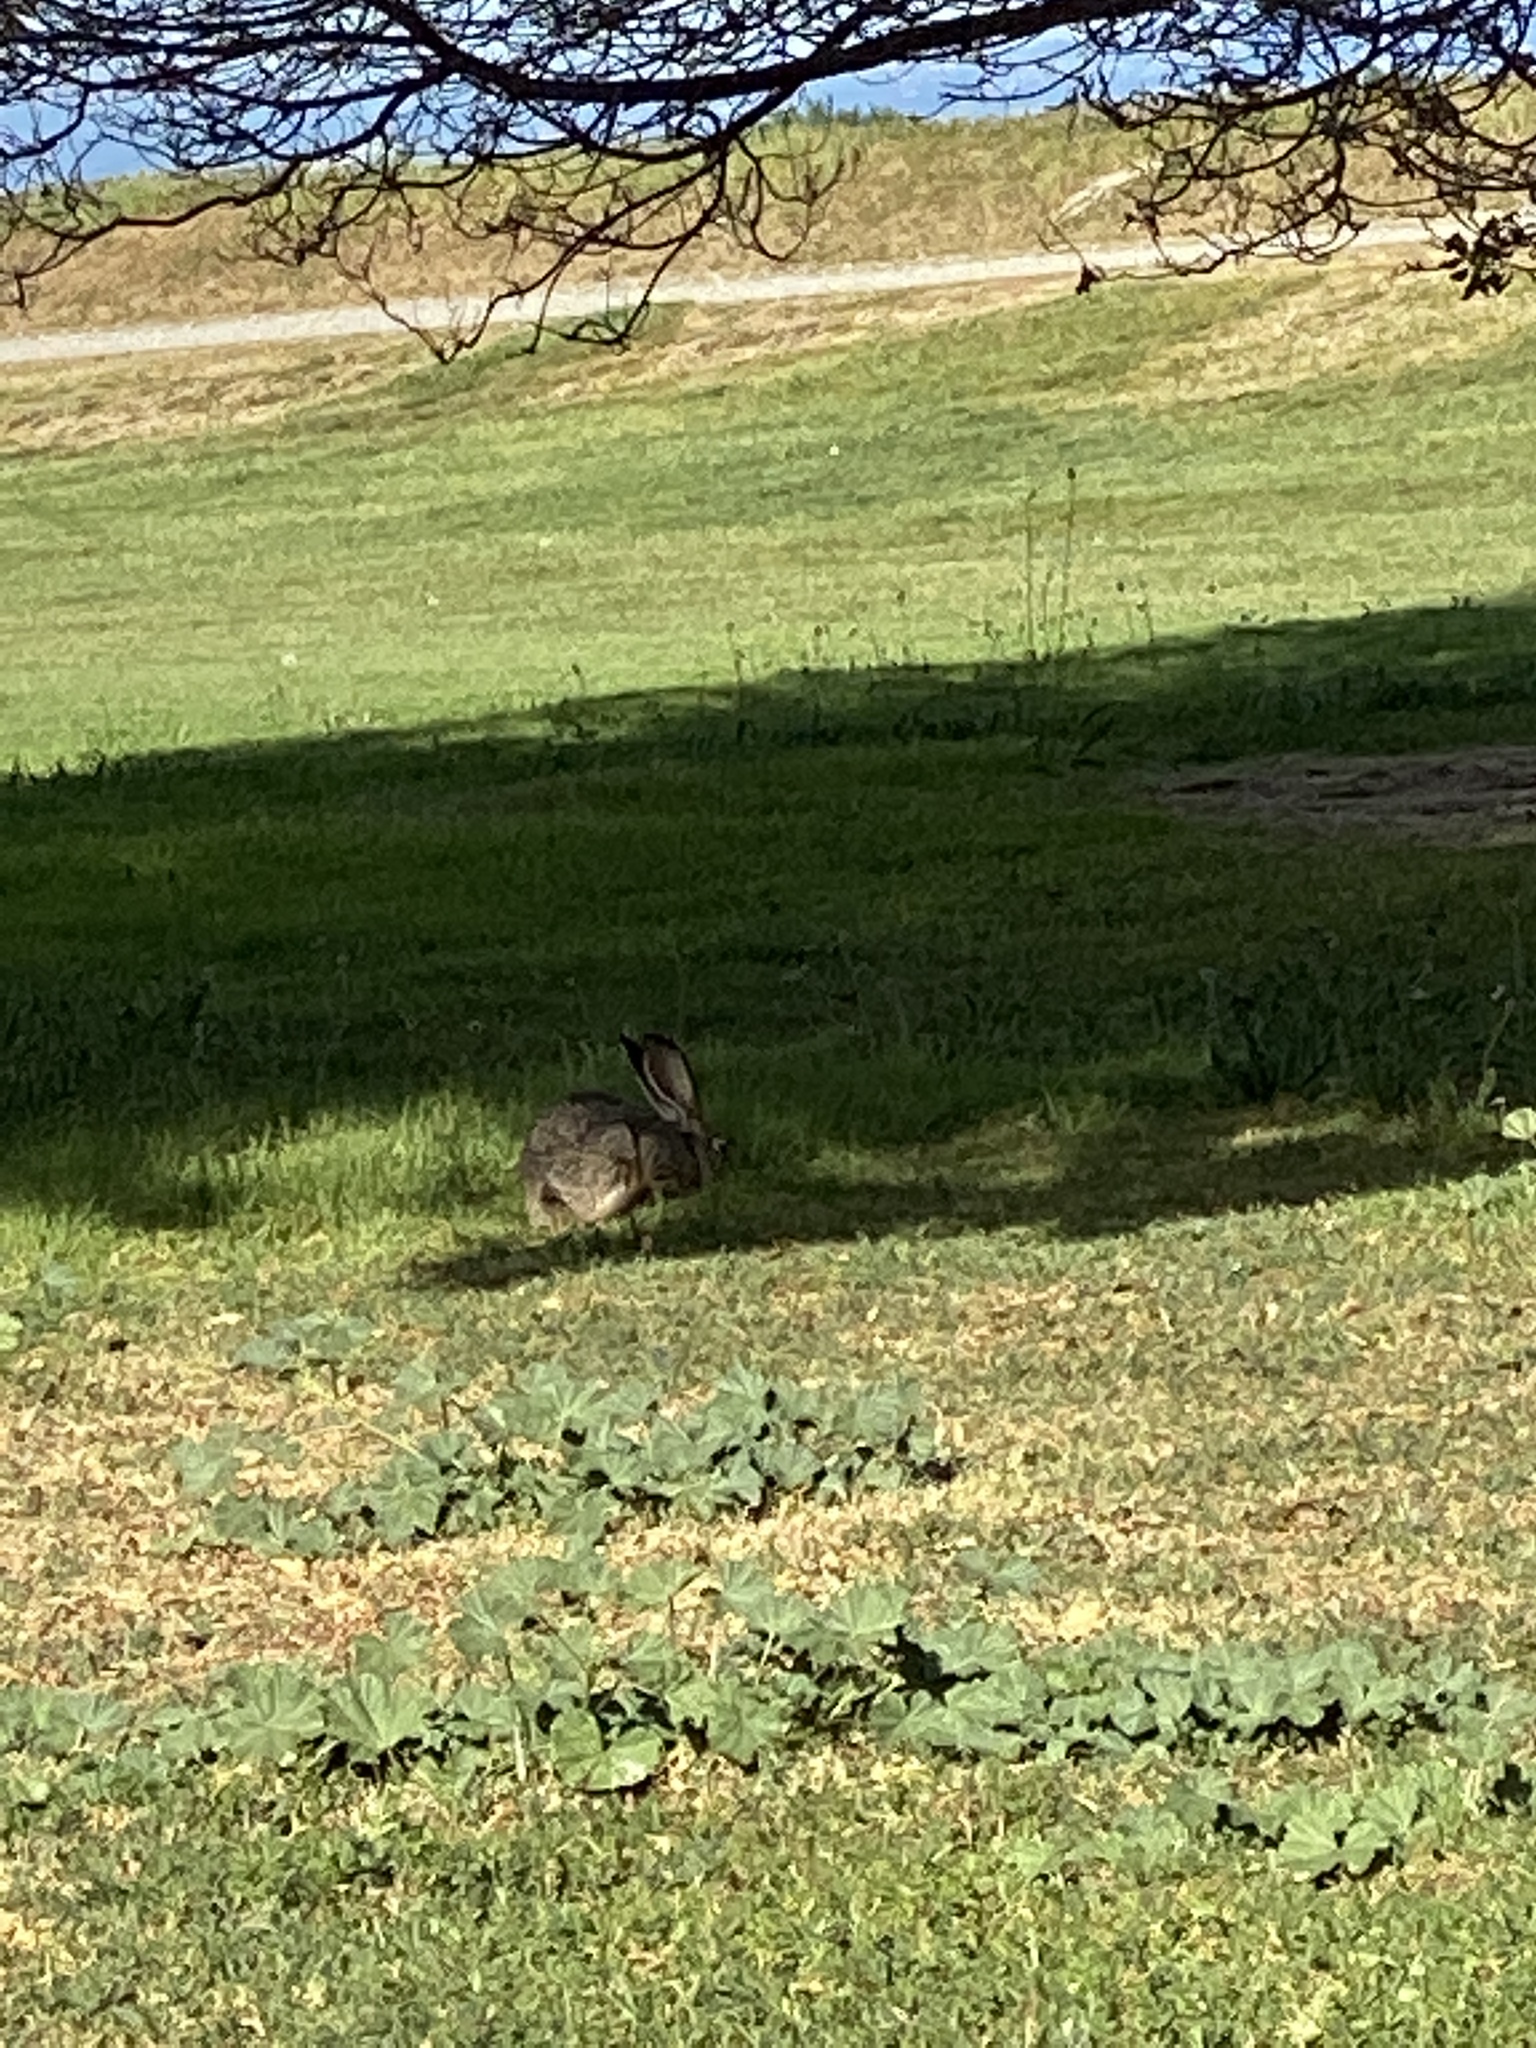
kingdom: Animalia
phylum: Chordata
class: Mammalia
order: Lagomorpha
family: Leporidae
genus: Lepus
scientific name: Lepus californicus
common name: Black-tailed jackrabbit
